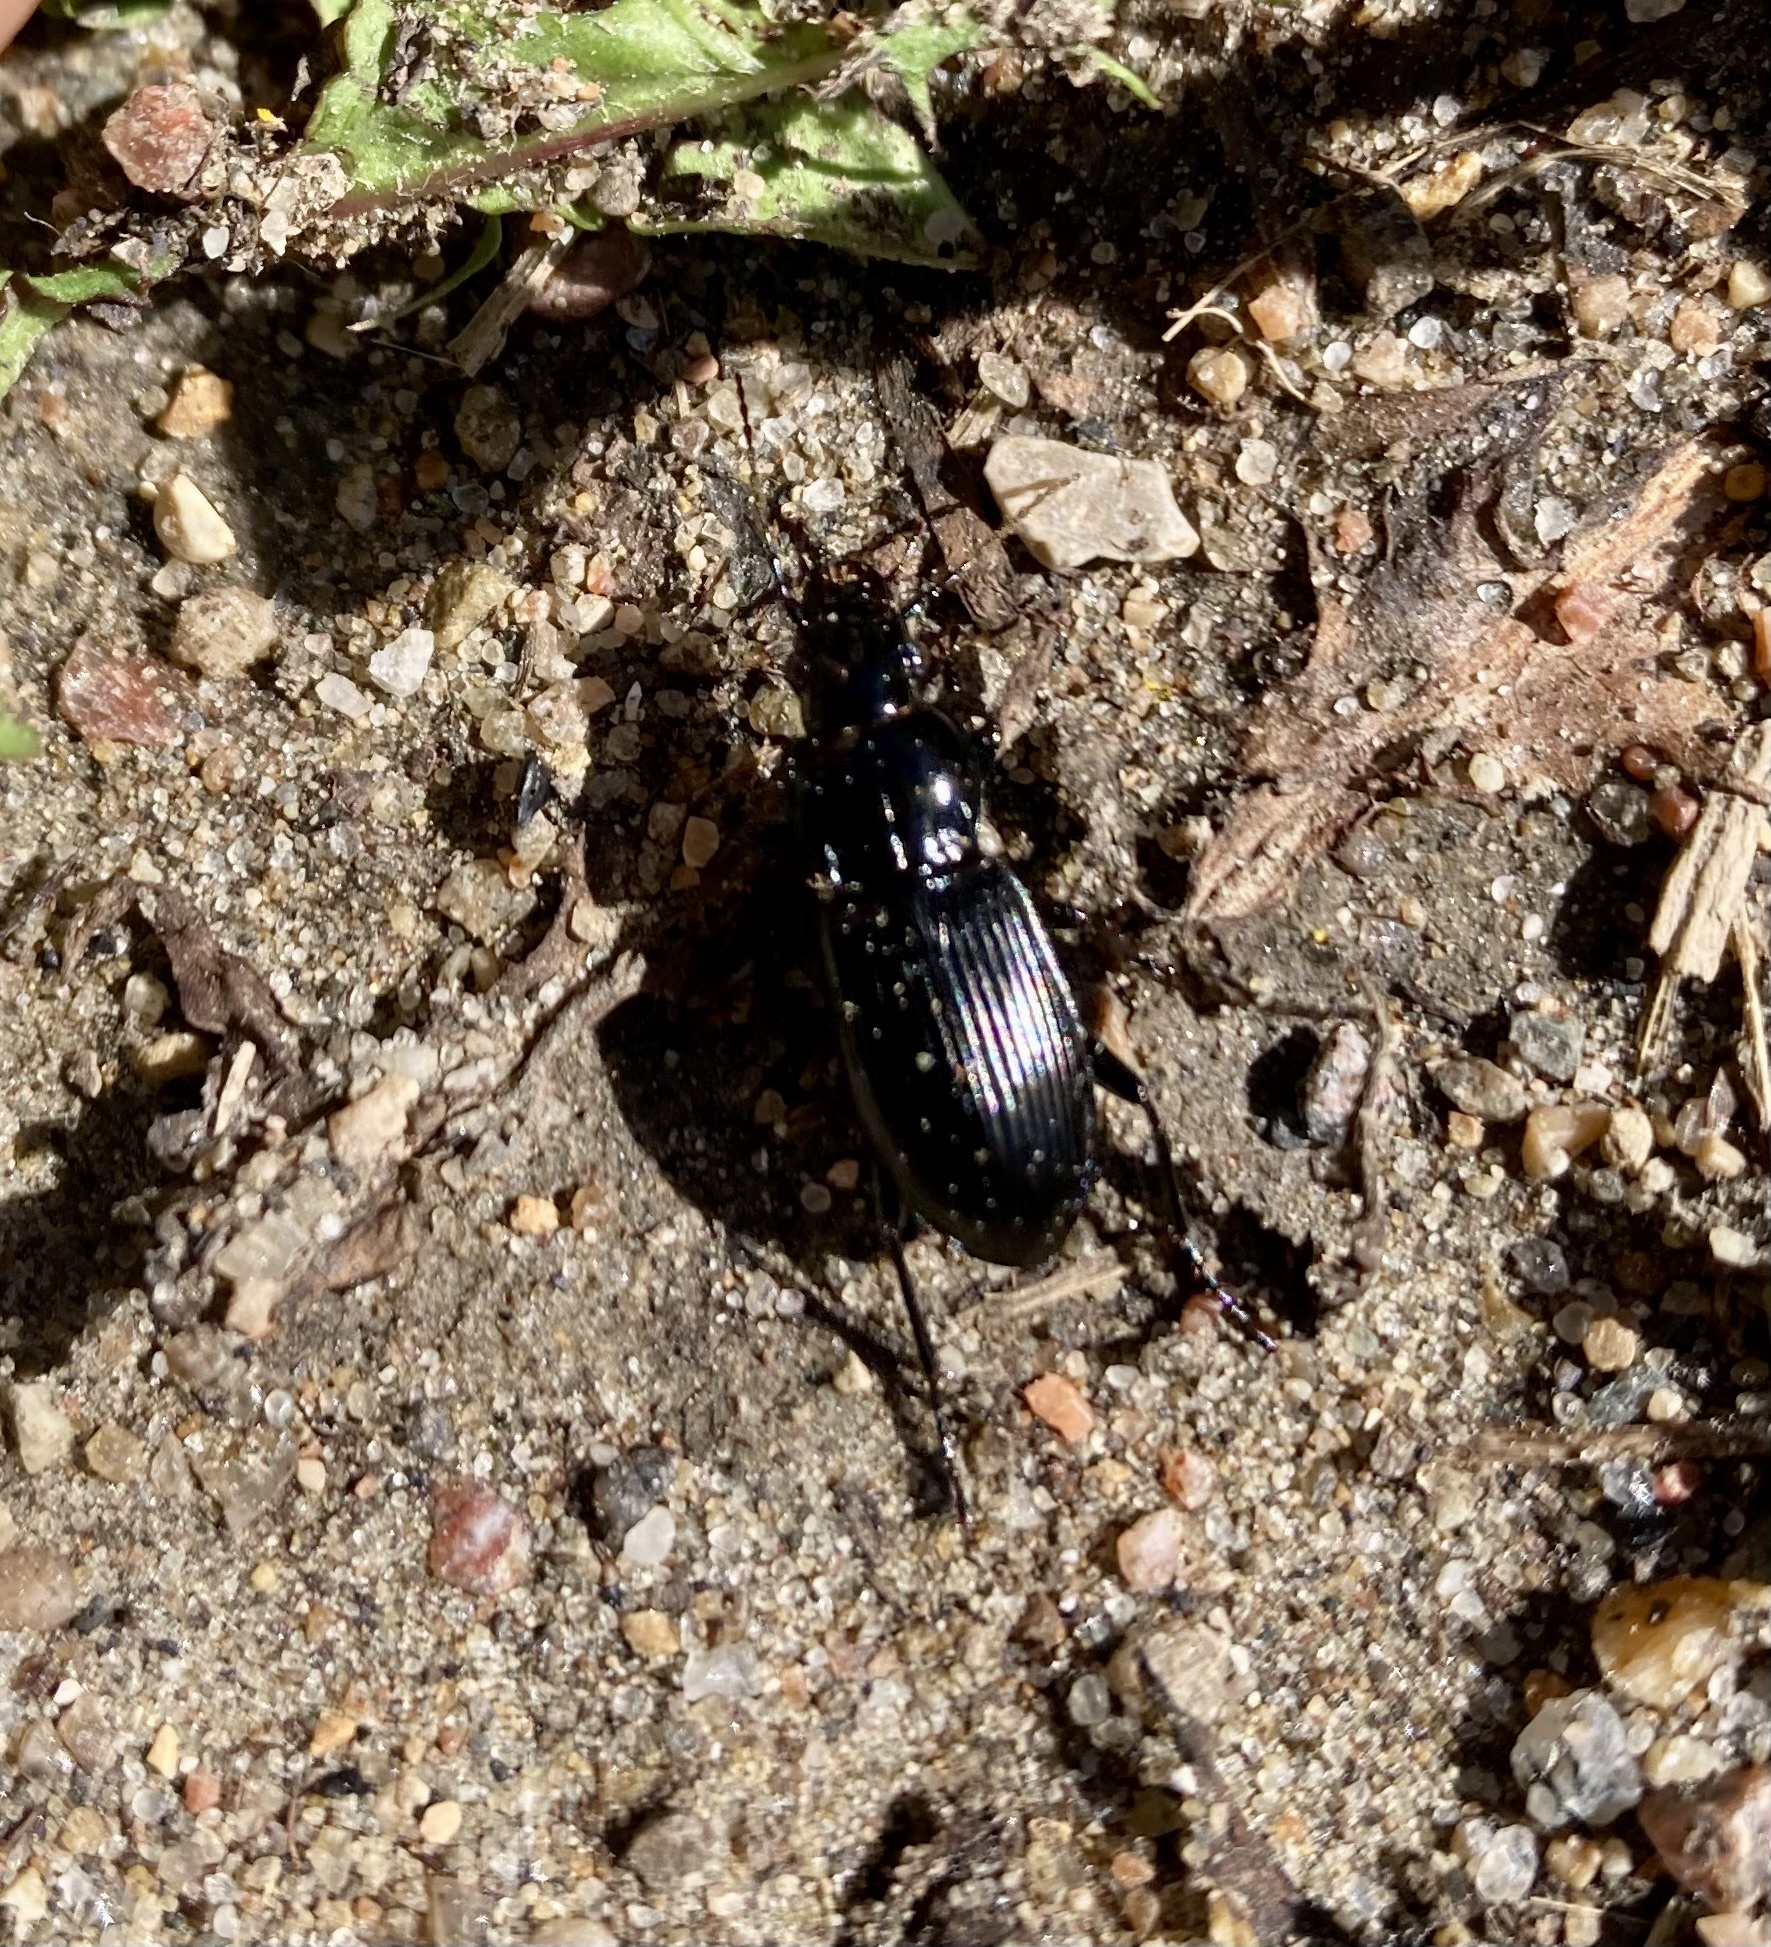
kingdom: Animalia
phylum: Arthropoda
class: Insecta
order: Coleoptera
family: Carabidae
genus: Pterostichus
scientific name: Pterostichus melanarius
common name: European dark harp ground beetle
